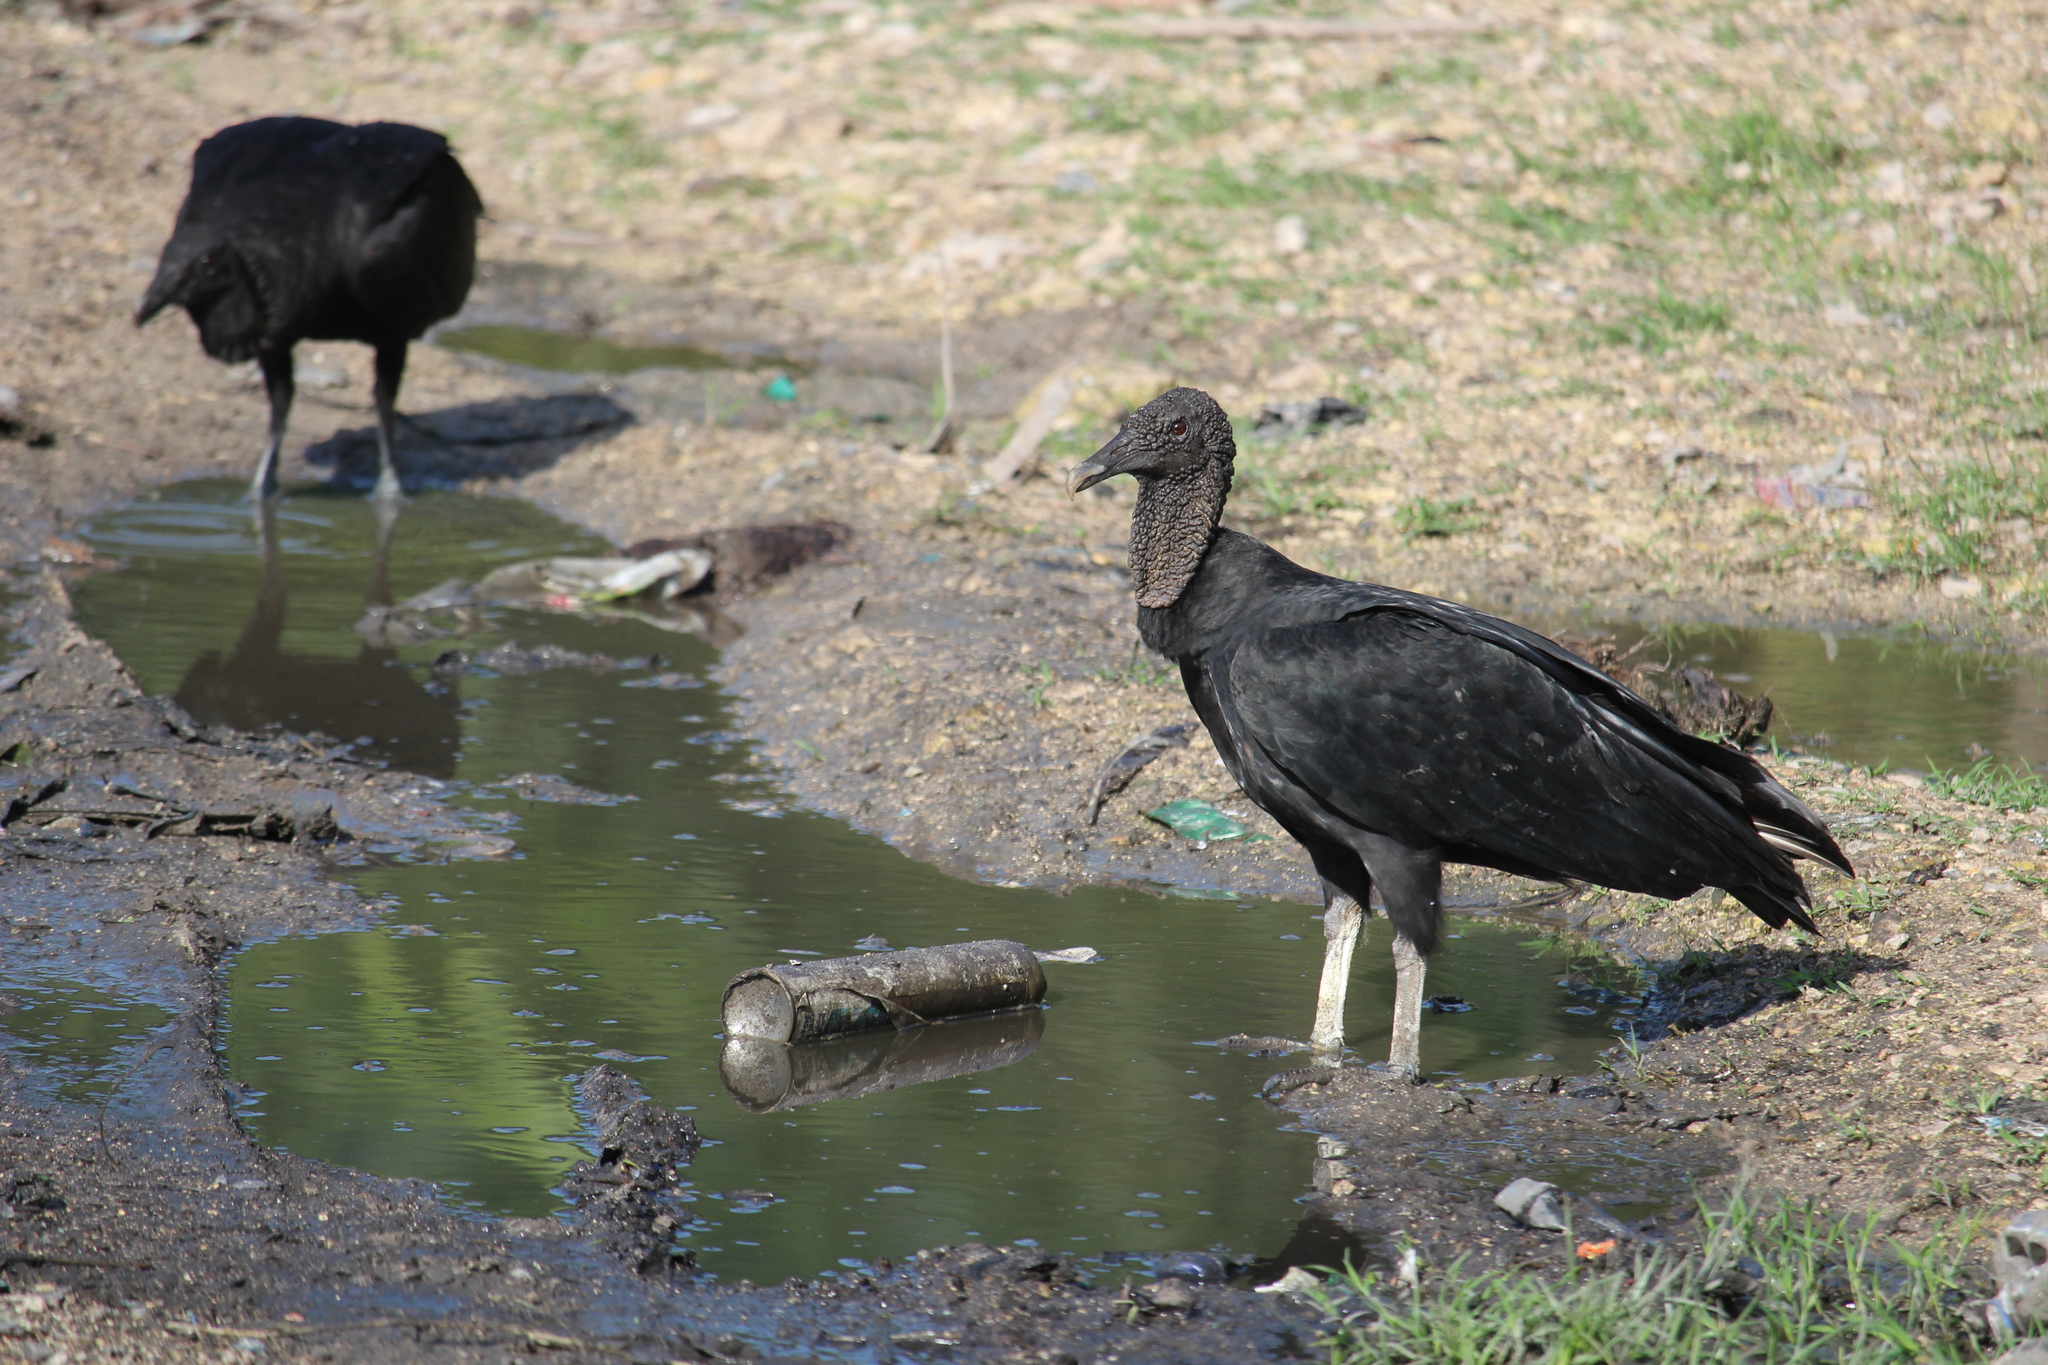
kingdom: Animalia
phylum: Chordata
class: Aves
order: Accipitriformes
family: Cathartidae
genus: Coragyps
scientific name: Coragyps atratus
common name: Black vulture
